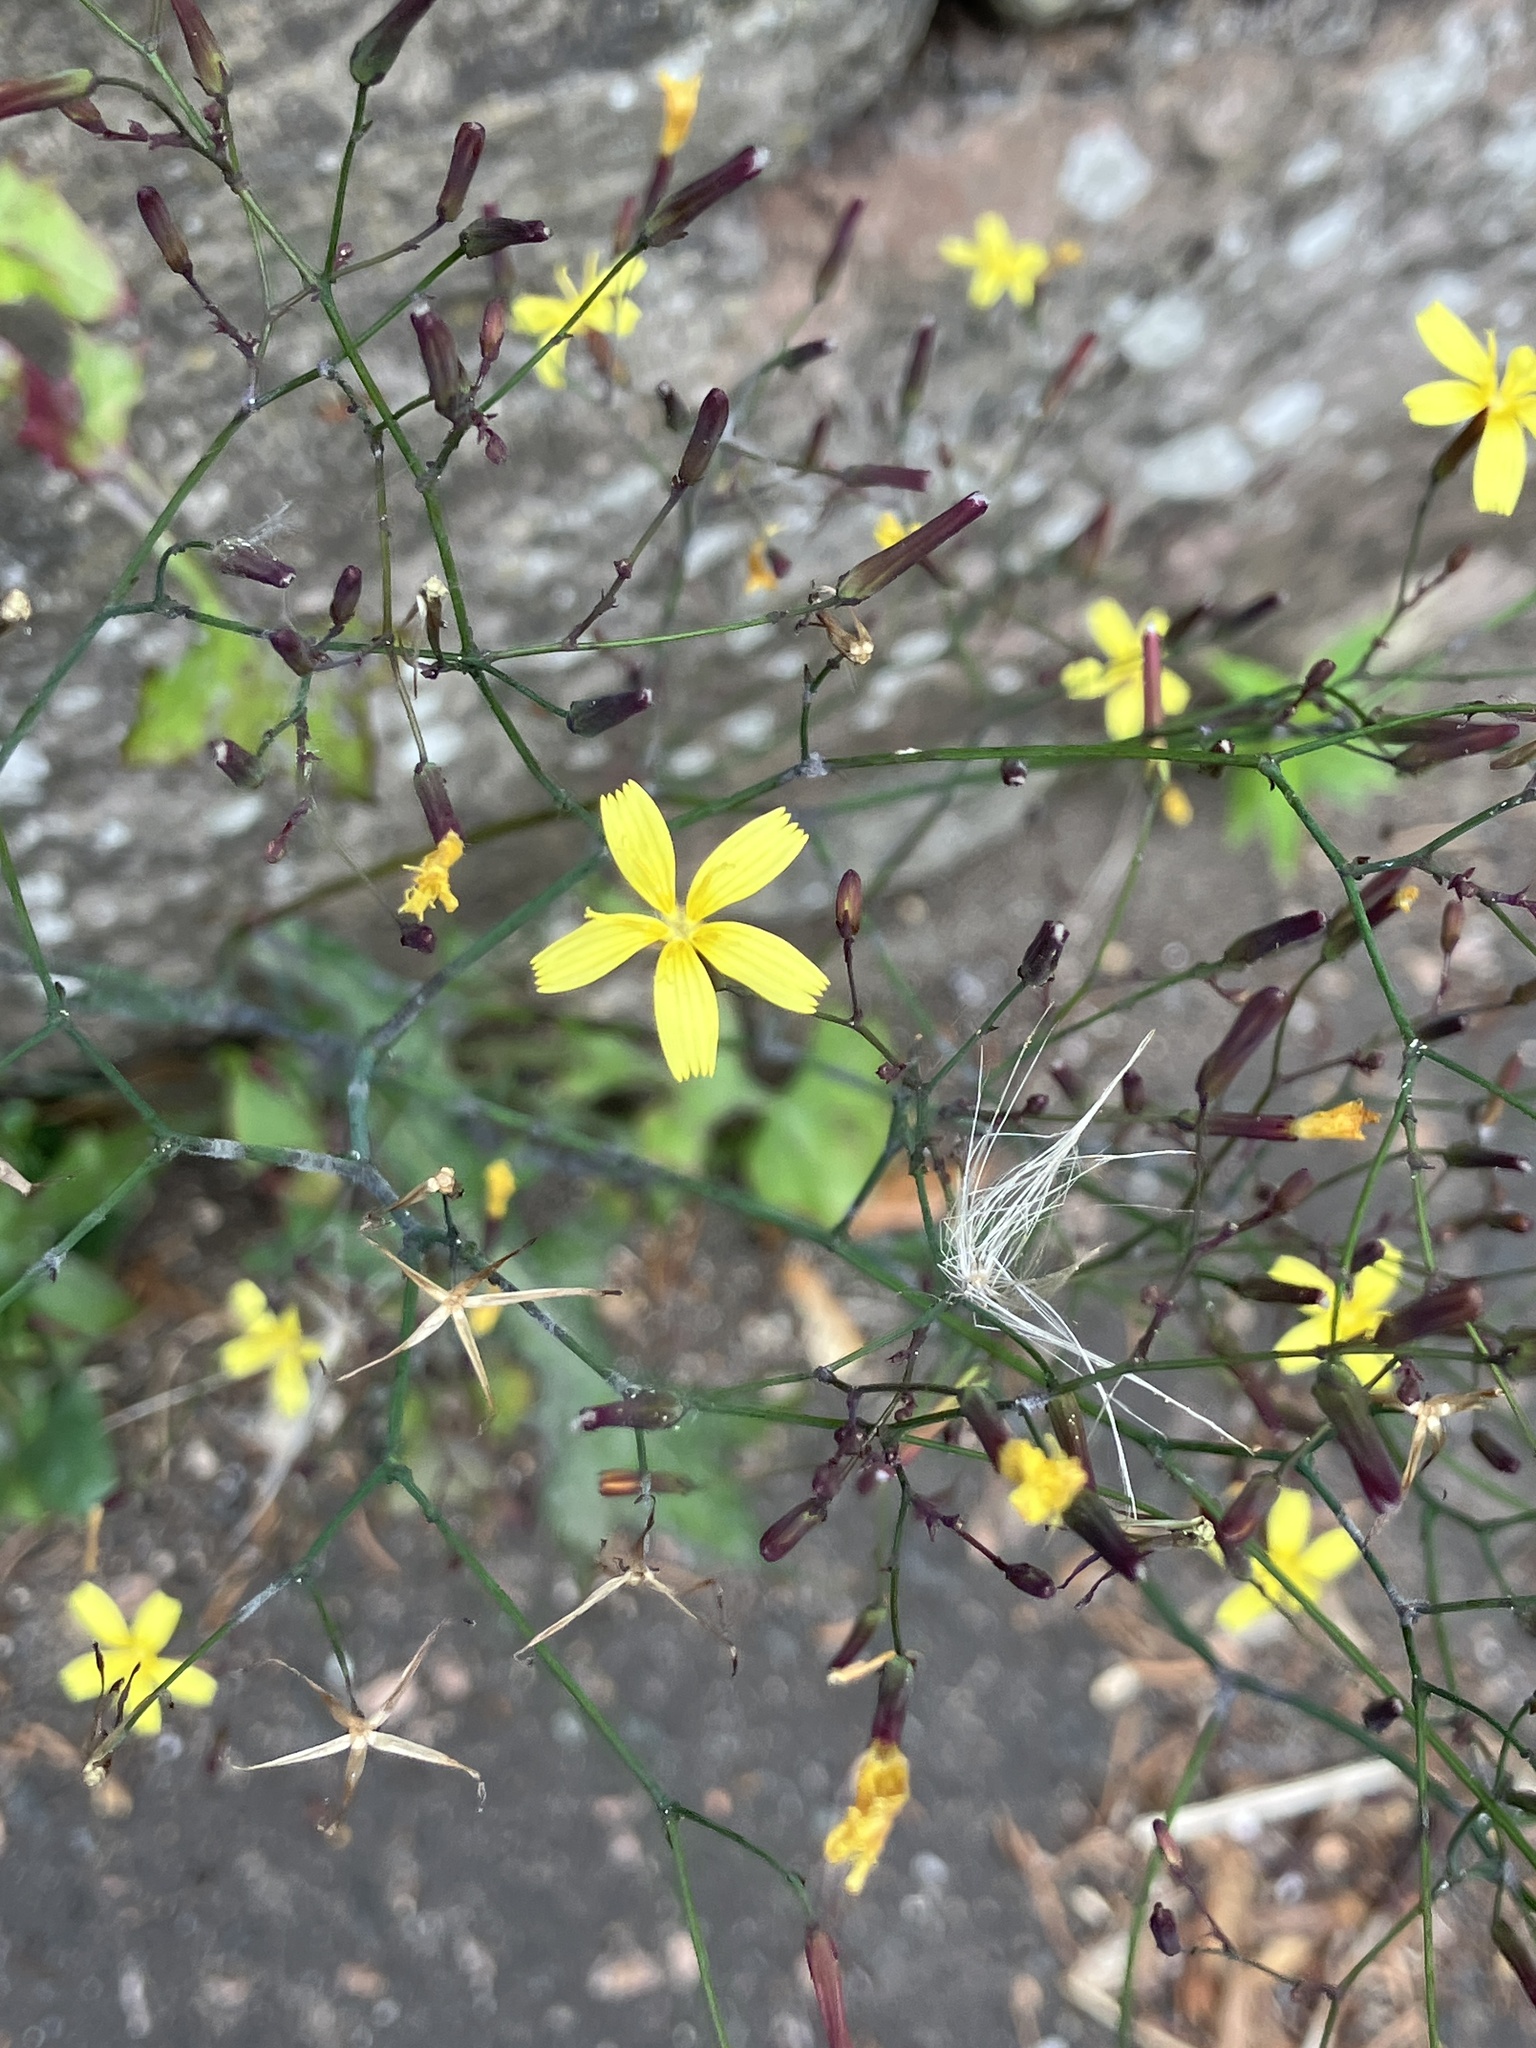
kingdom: Plantae
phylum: Tracheophyta
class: Magnoliopsida
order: Asterales
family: Asteraceae
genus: Mycelis
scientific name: Mycelis muralis
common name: Wall lettuce
